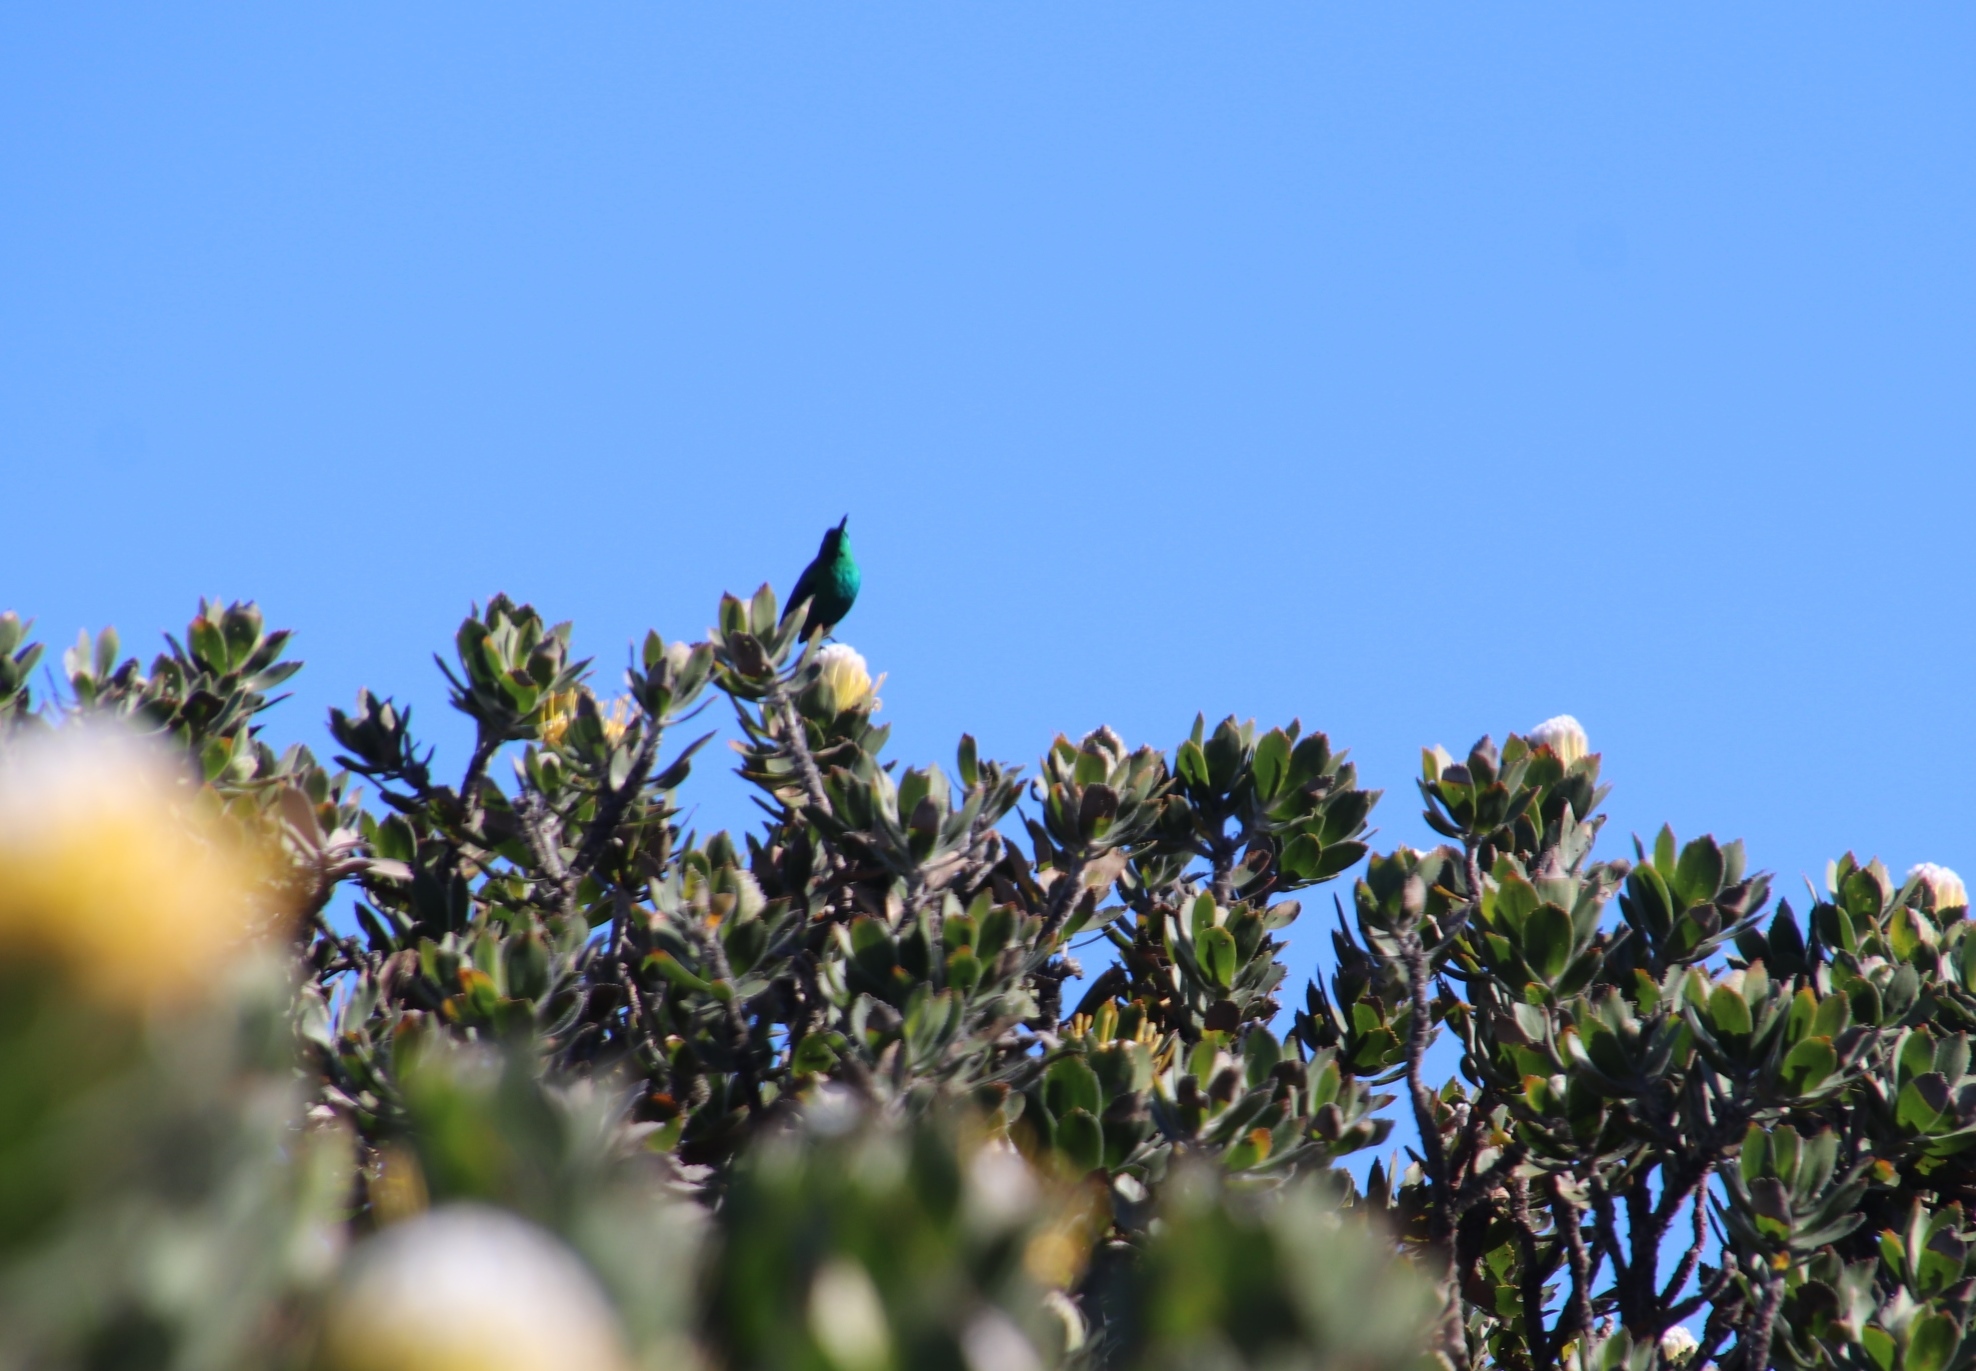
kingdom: Animalia
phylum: Chordata
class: Aves
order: Passeriformes
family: Nectariniidae
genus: Nectarinia
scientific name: Nectarinia famosa
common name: Malachite sunbird
